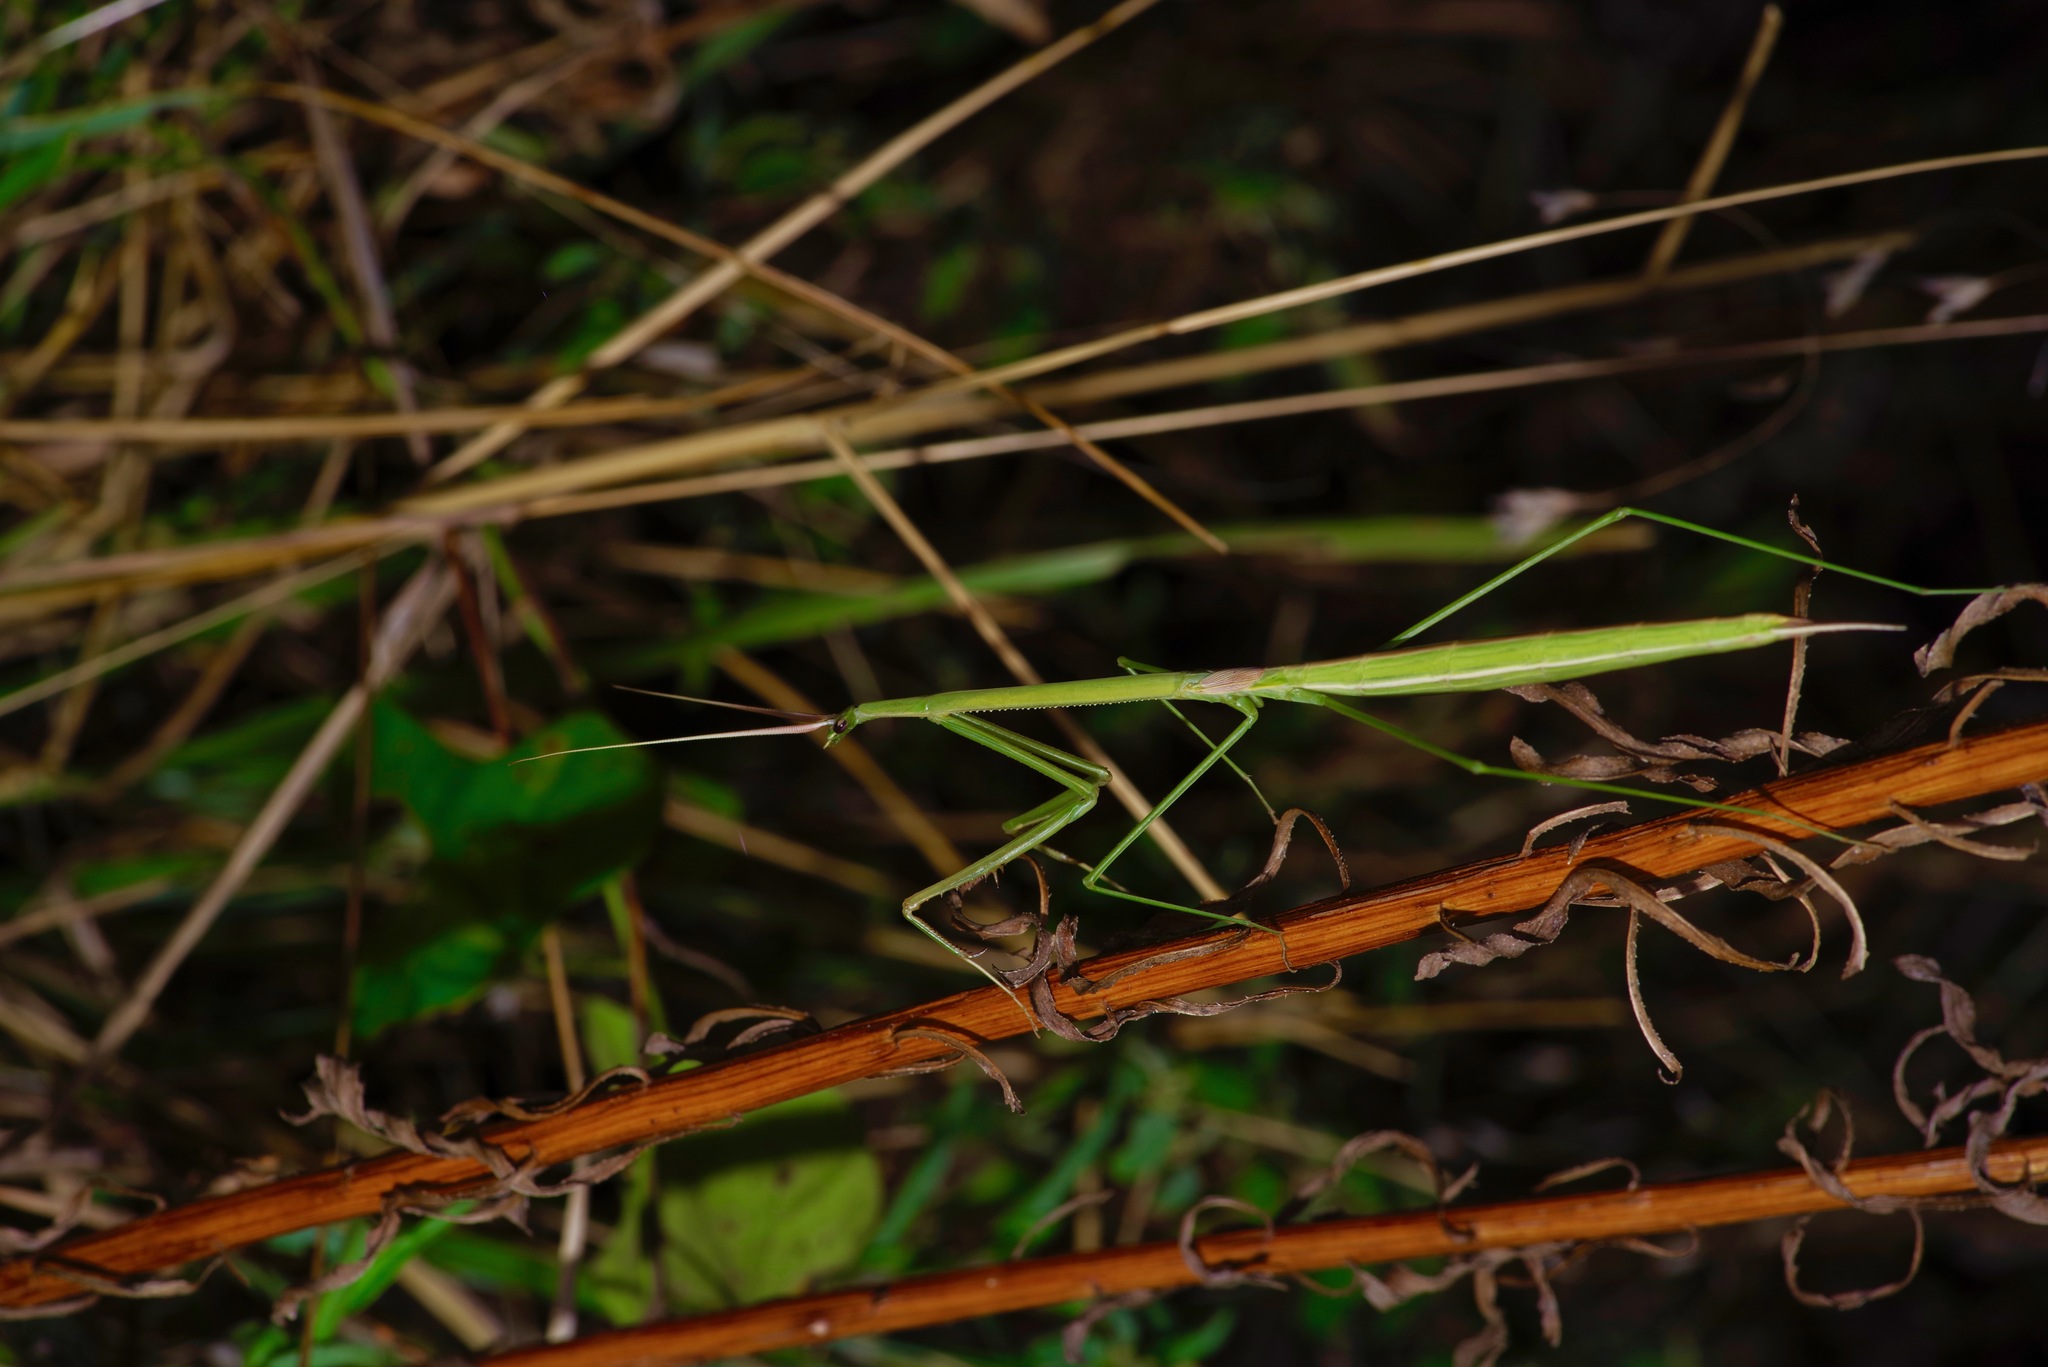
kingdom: Animalia
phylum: Arthropoda
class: Insecta
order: Mantodea
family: Coptopterygidae
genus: Brunneria
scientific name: Brunneria borealis
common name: Mantis
